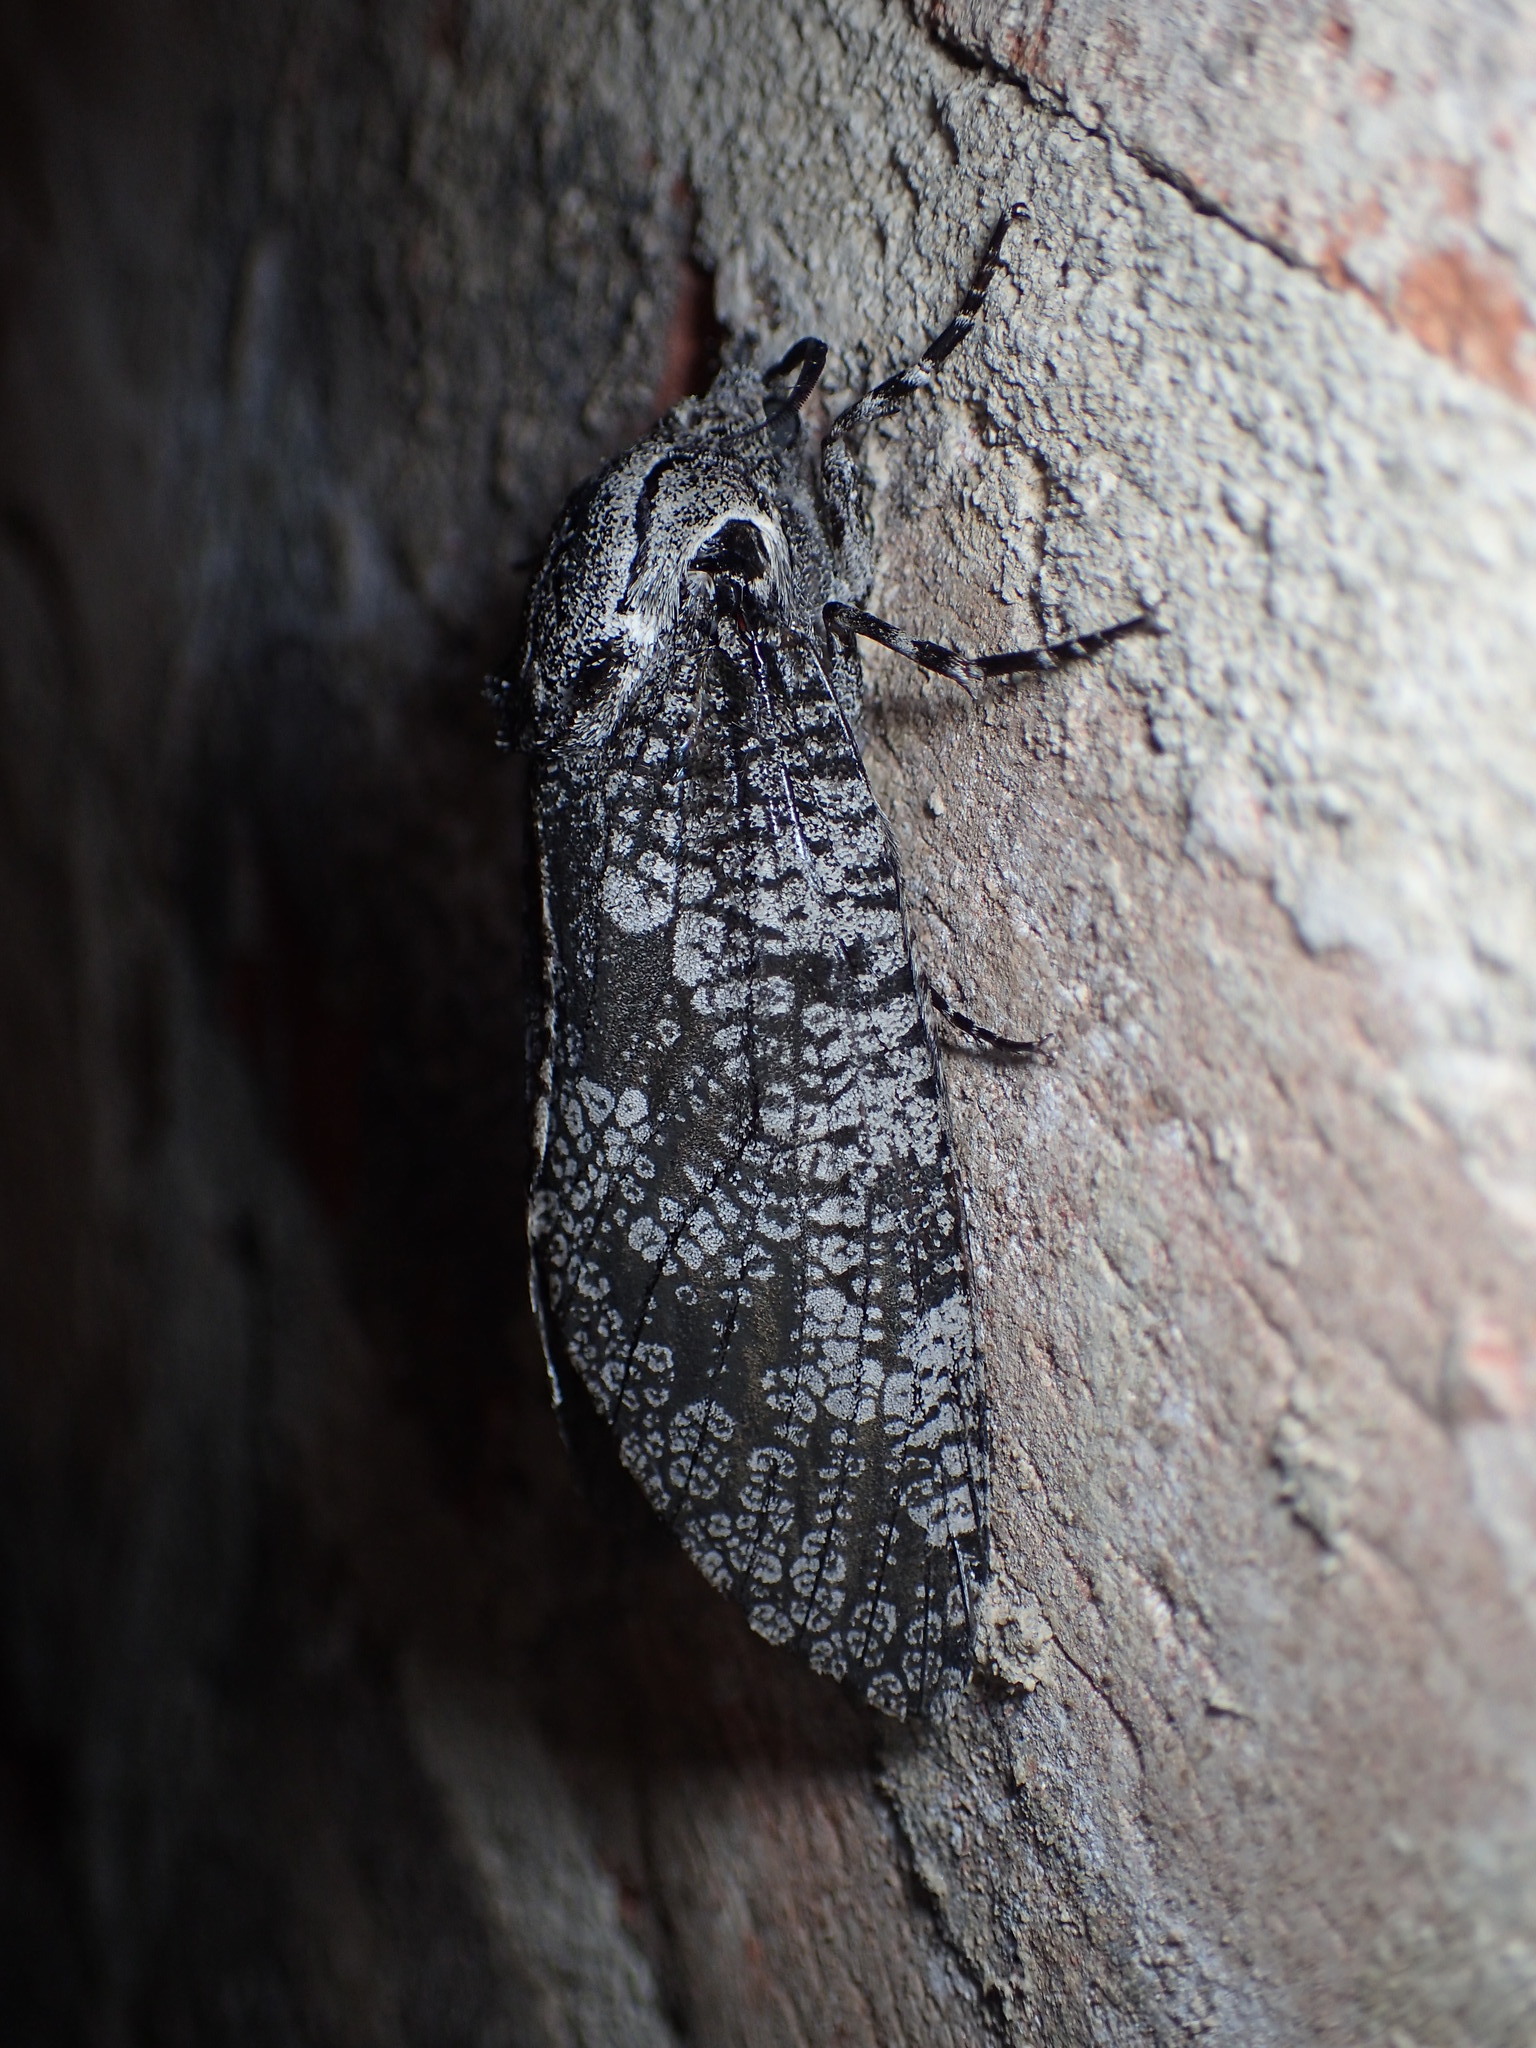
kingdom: Animalia
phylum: Arthropoda
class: Insecta
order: Lepidoptera
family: Cossidae
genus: Prionoxystus
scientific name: Prionoxystus robiniae
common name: Carpenterworm
